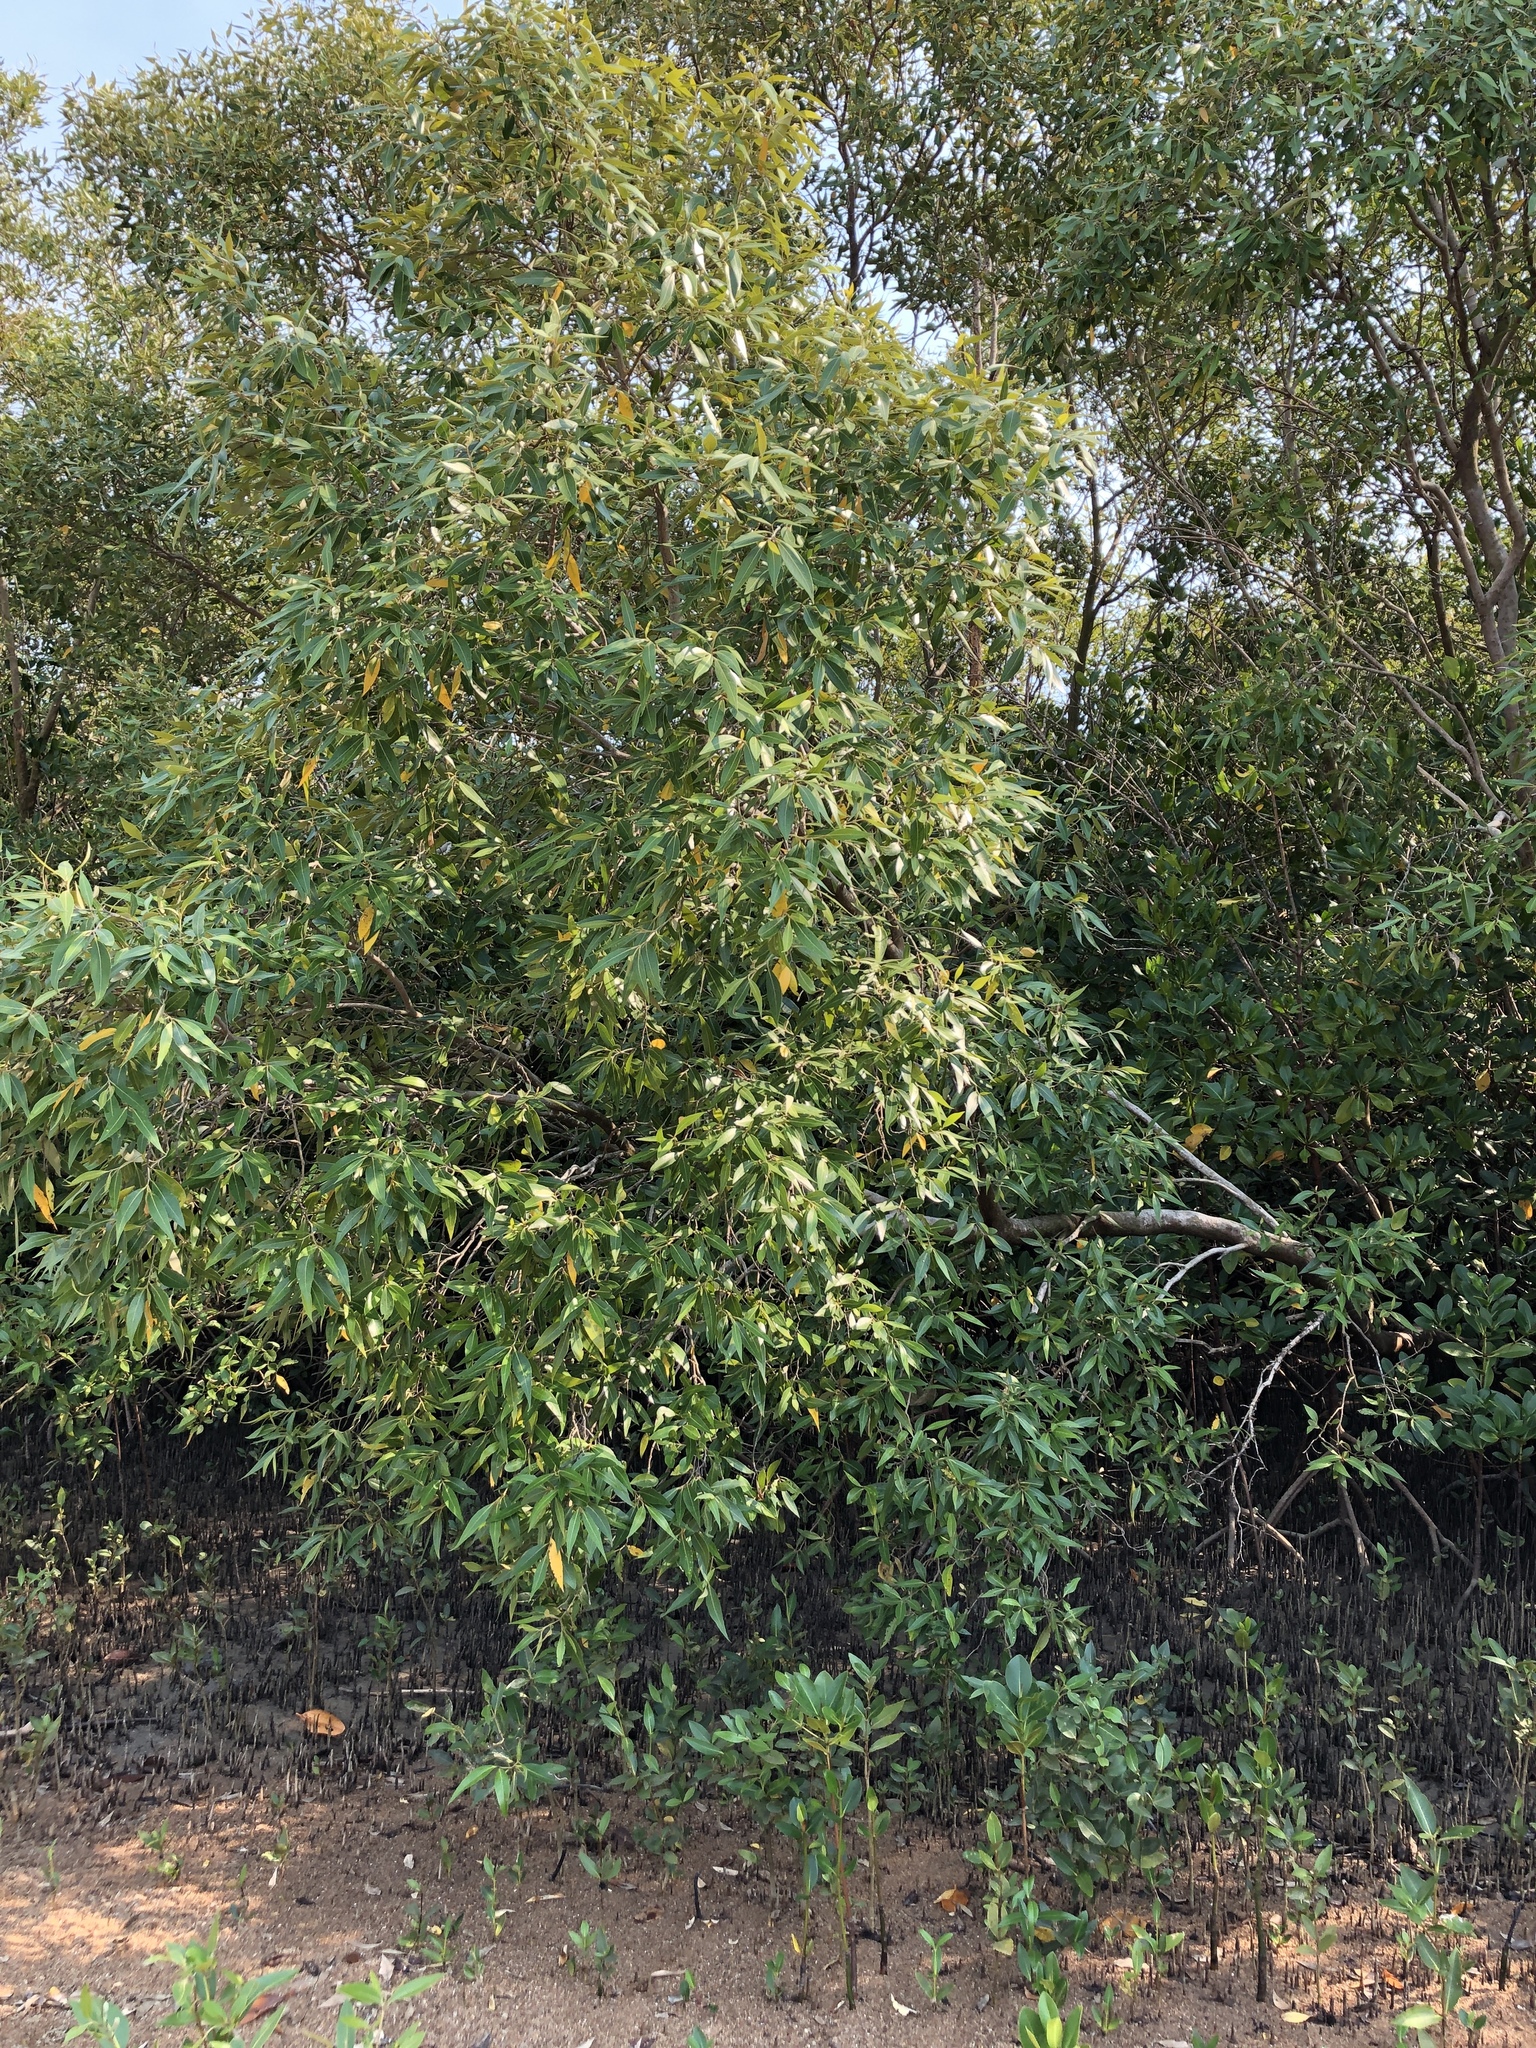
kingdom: Plantae
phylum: Tracheophyta
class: Magnoliopsida
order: Lamiales
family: Acanthaceae
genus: Avicennia
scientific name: Avicennia marina
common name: Gray mangrove
